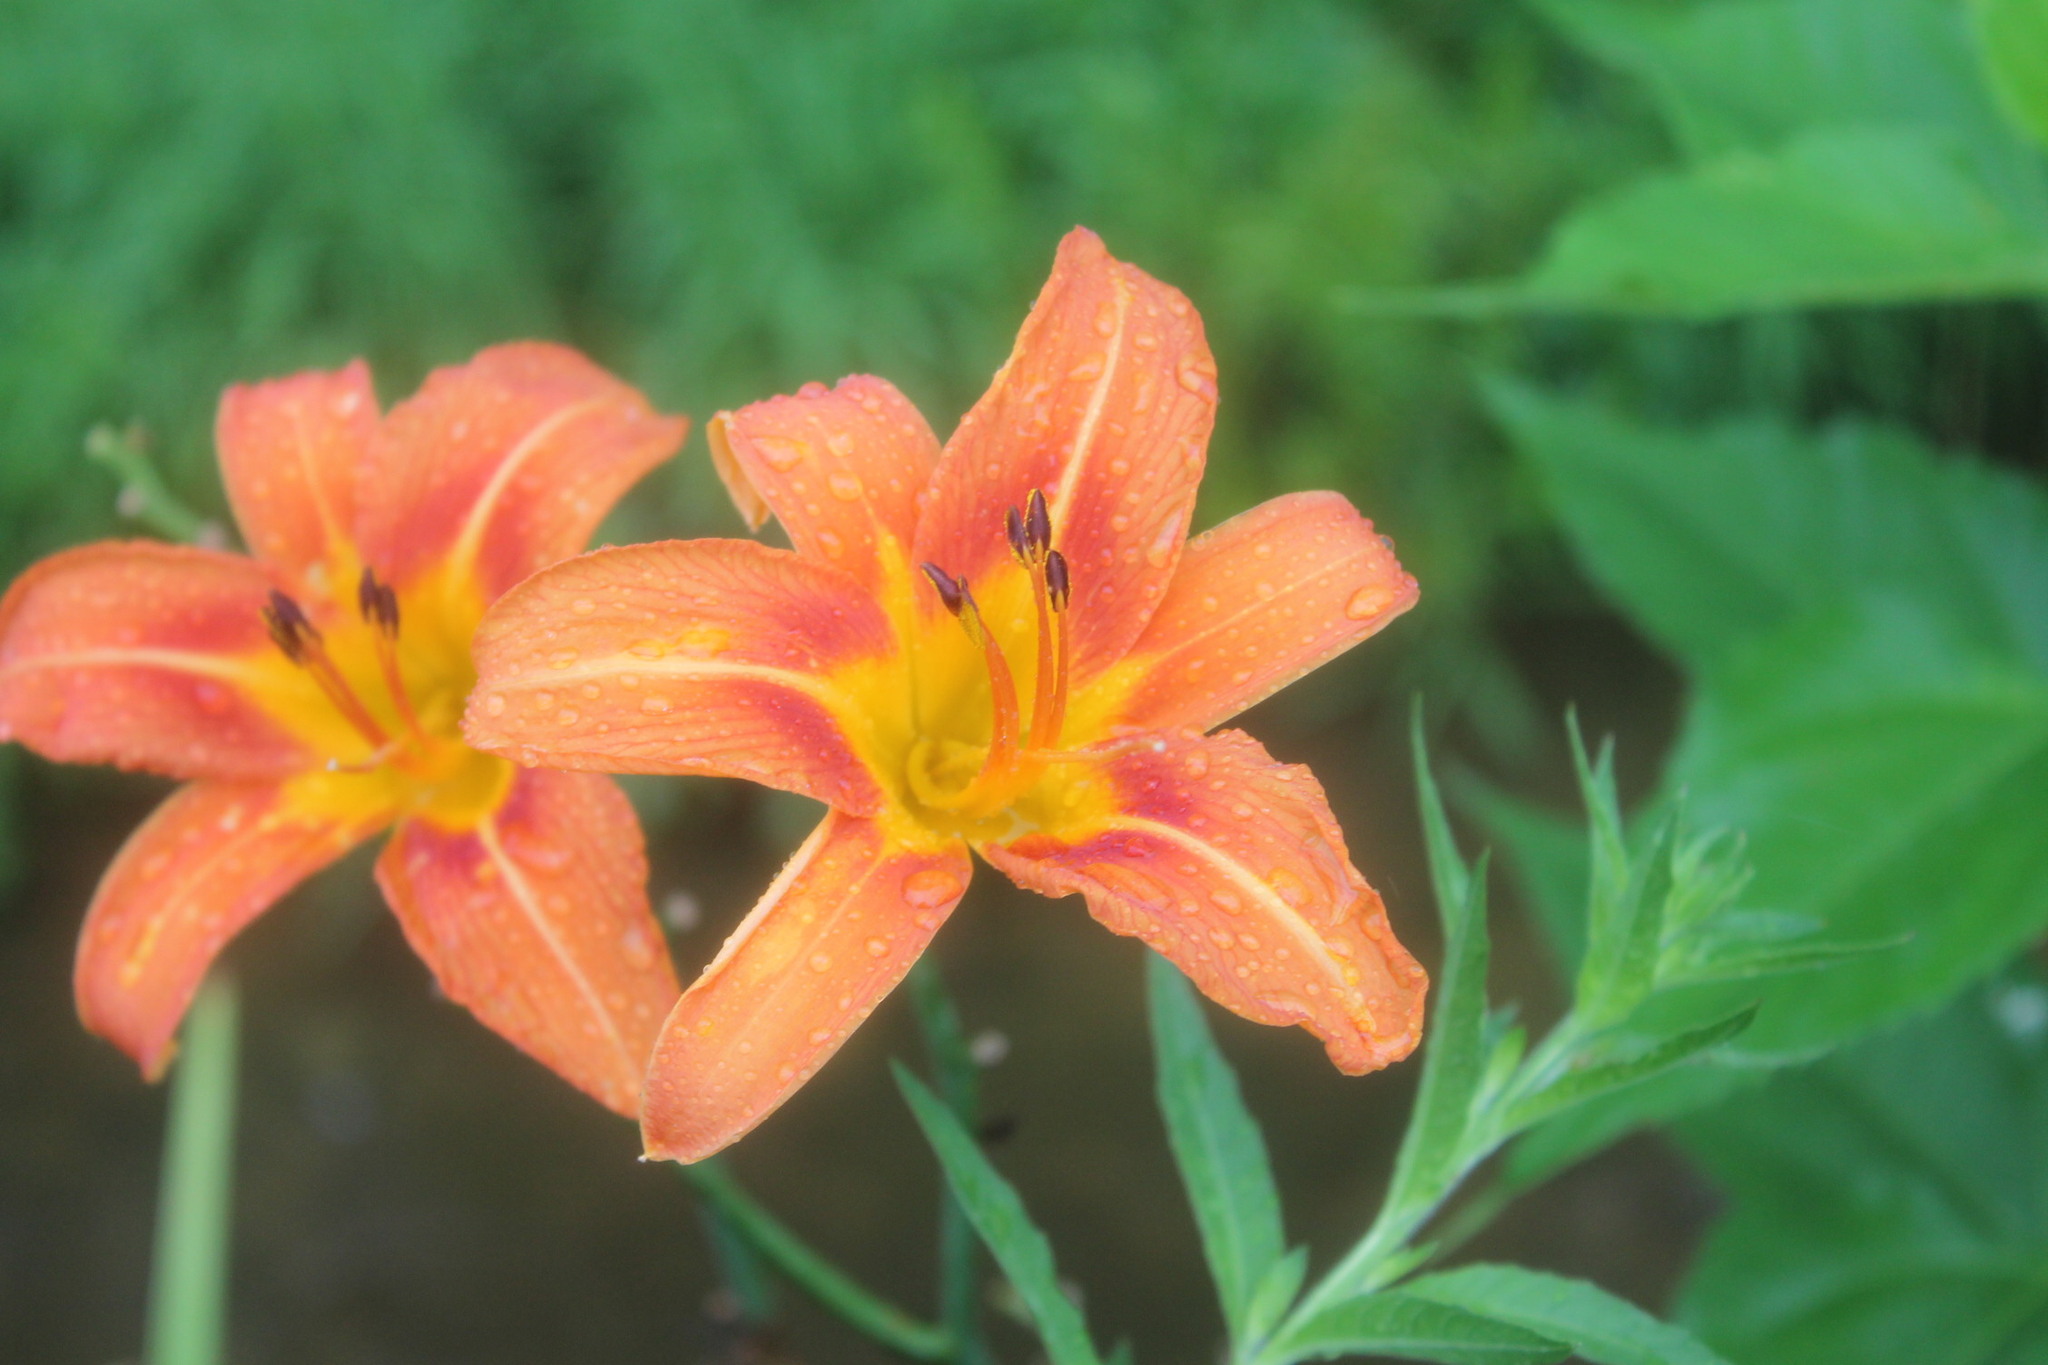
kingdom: Plantae
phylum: Tracheophyta
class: Liliopsida
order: Asparagales
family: Asphodelaceae
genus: Hemerocallis
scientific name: Hemerocallis fulva
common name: Orange day-lily
